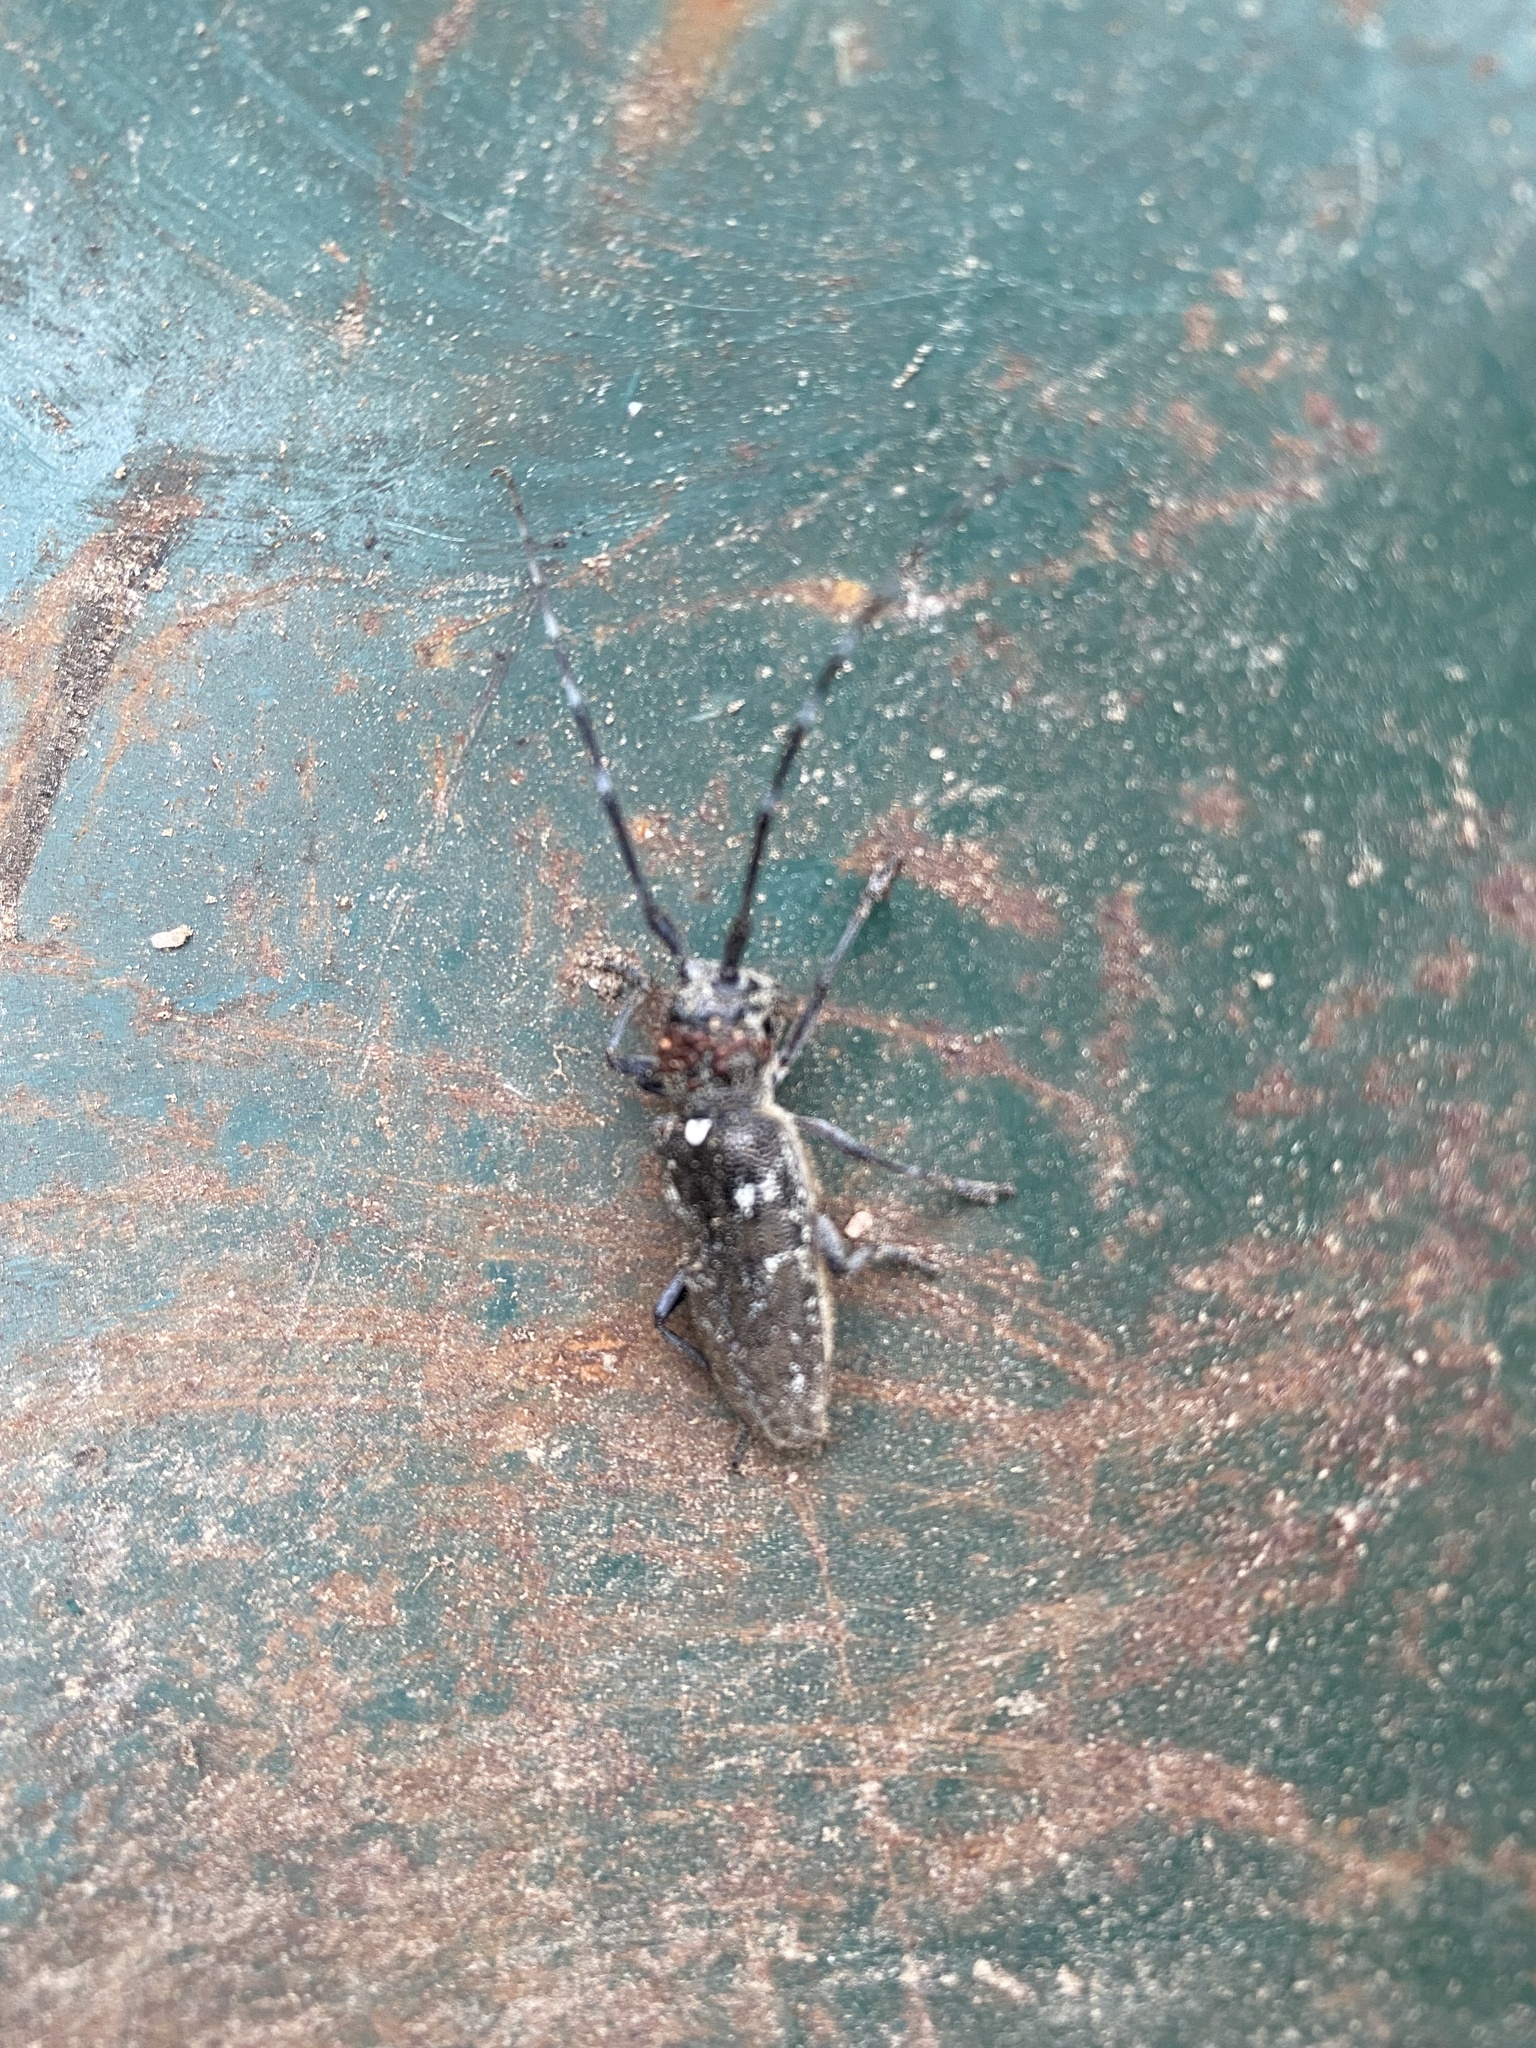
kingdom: Animalia
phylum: Arthropoda
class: Insecta
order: Coleoptera
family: Cerambycidae
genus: Monochamus
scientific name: Monochamus scutellatus
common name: White-spotted sawyer beetle
